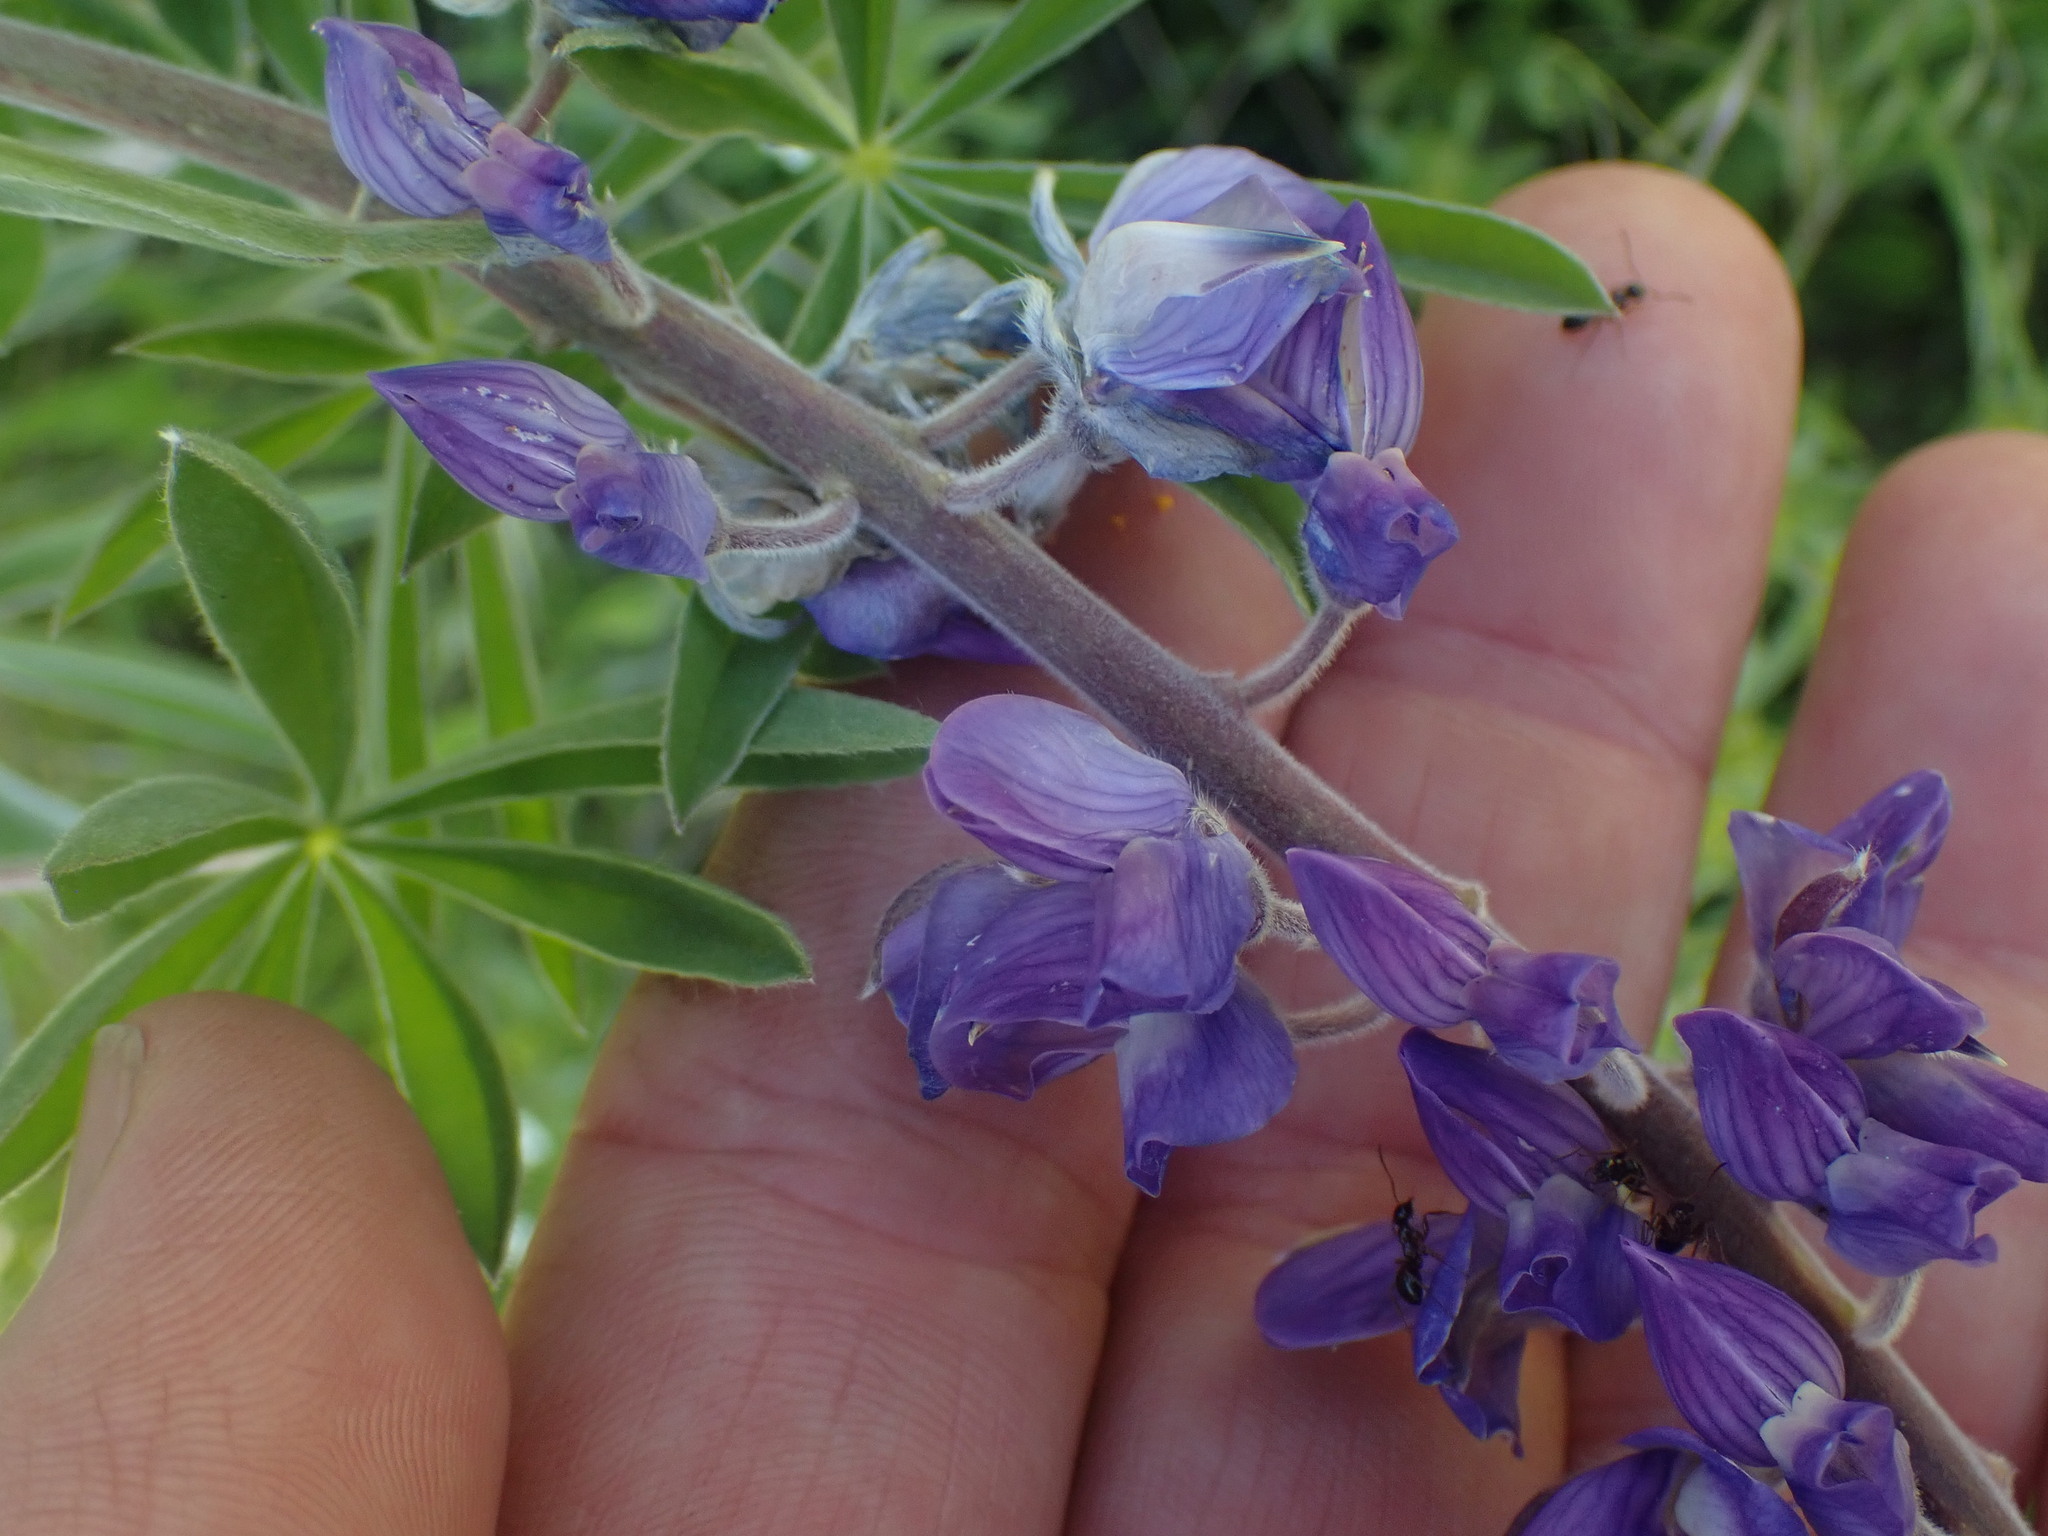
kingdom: Plantae
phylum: Tracheophyta
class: Magnoliopsida
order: Fabales
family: Fabaceae
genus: Lupinus
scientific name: Lupinus sericeus
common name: Silky lupine
